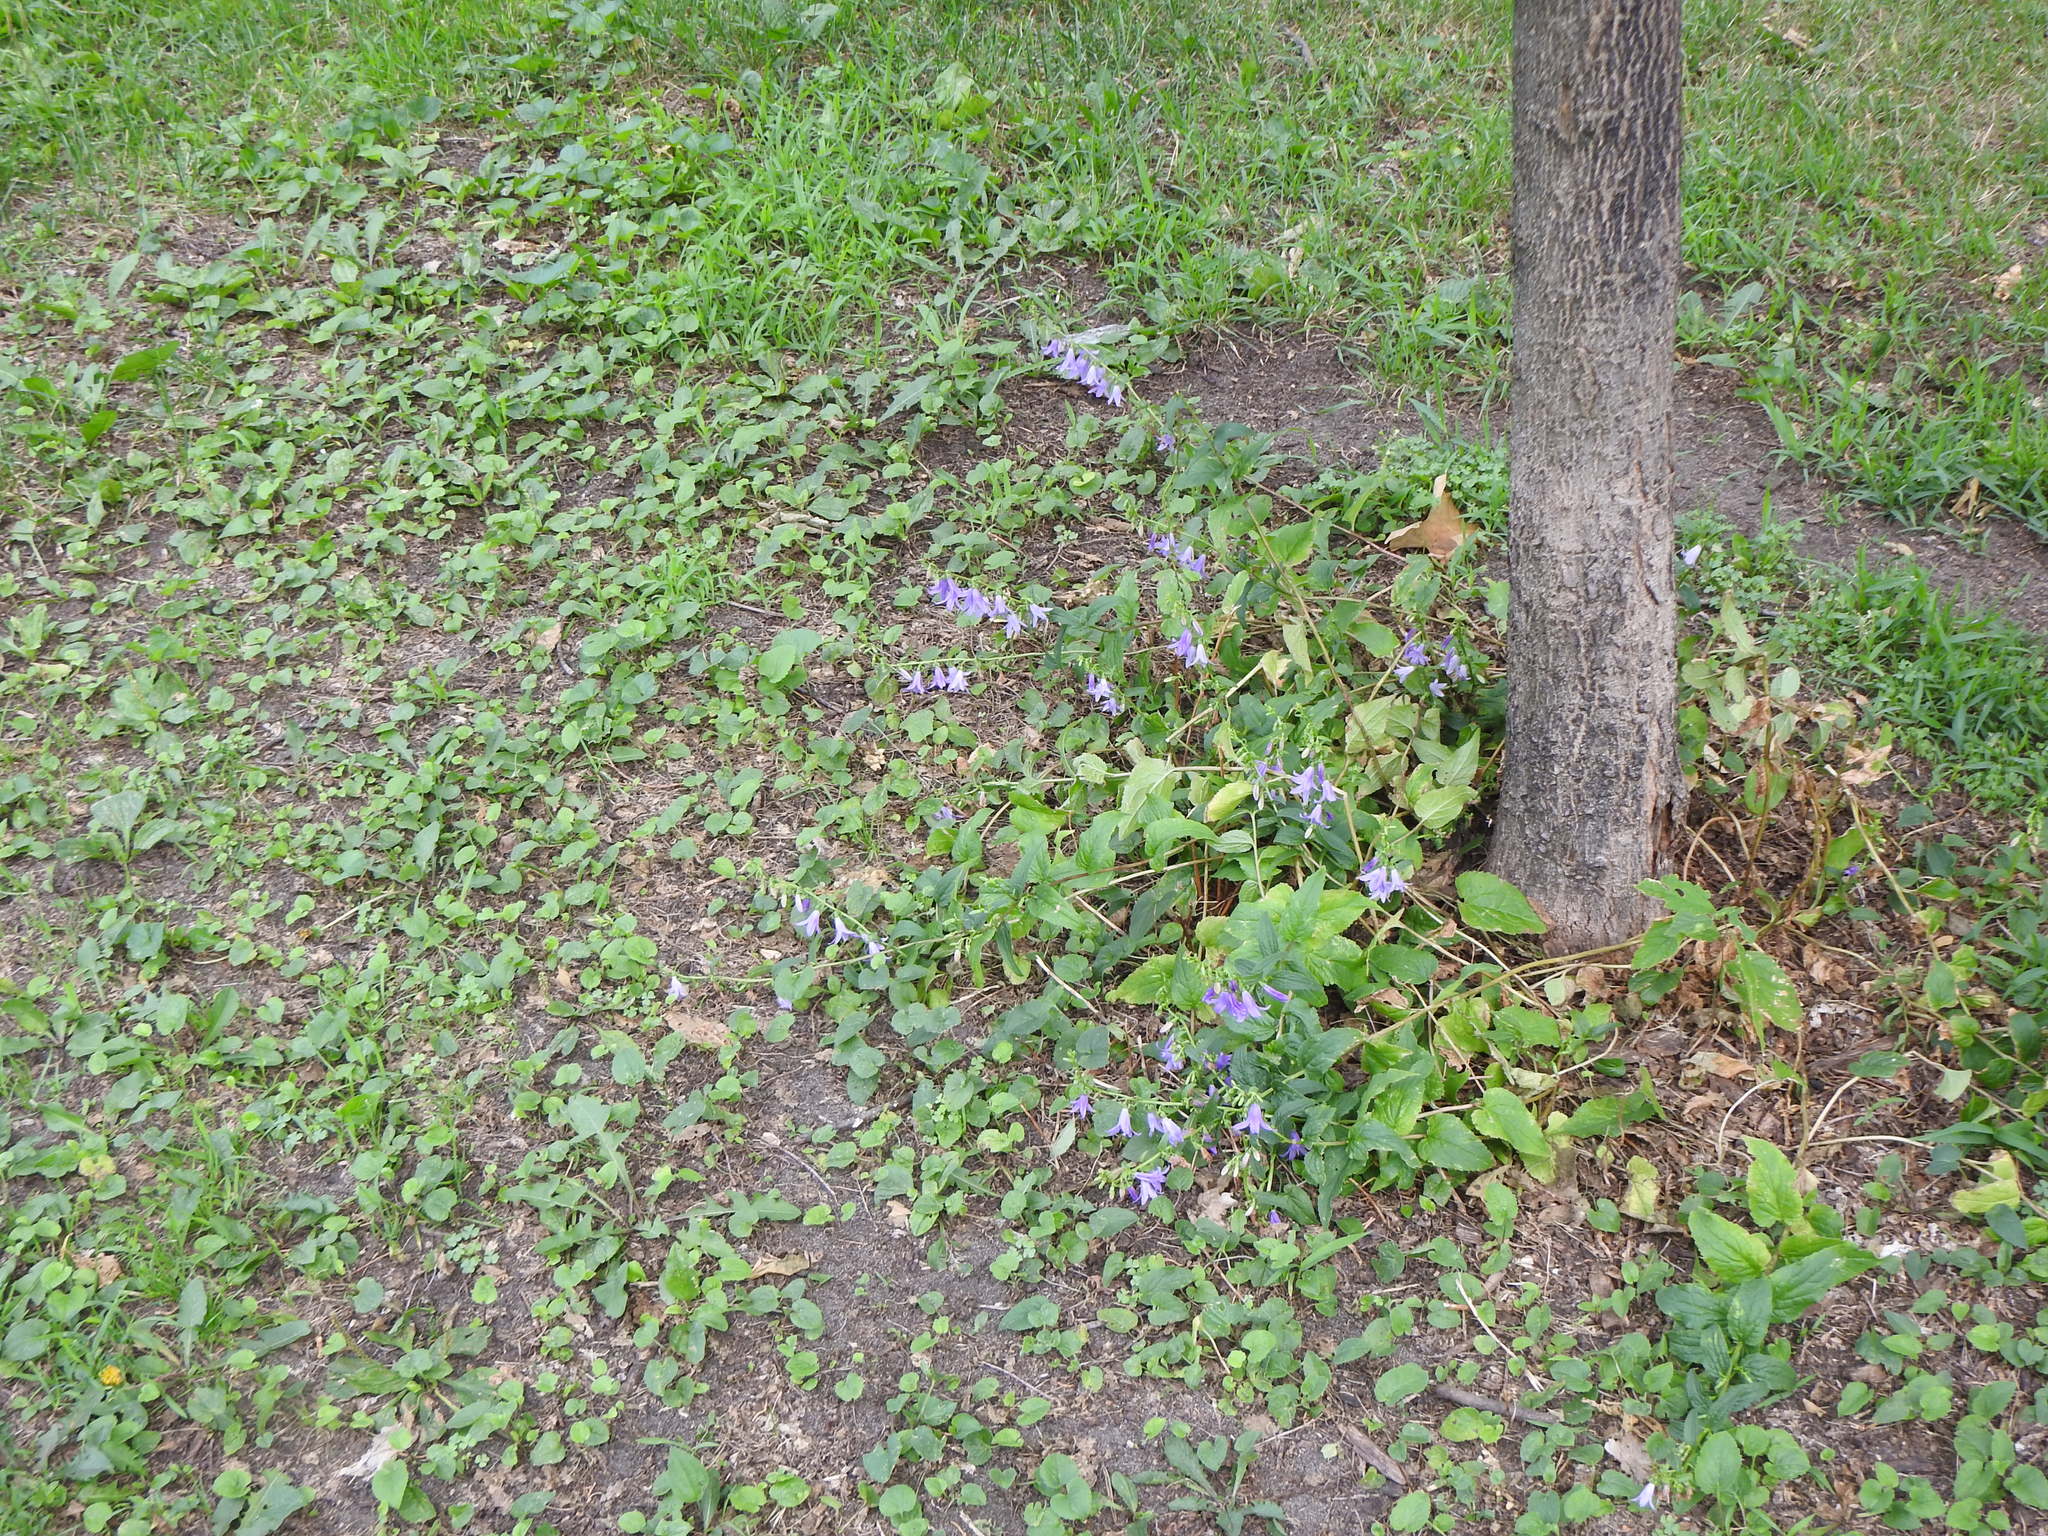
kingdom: Plantae
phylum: Tracheophyta
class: Magnoliopsida
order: Asterales
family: Campanulaceae
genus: Campanula
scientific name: Campanula rapunculoides
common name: Creeping bellflower
